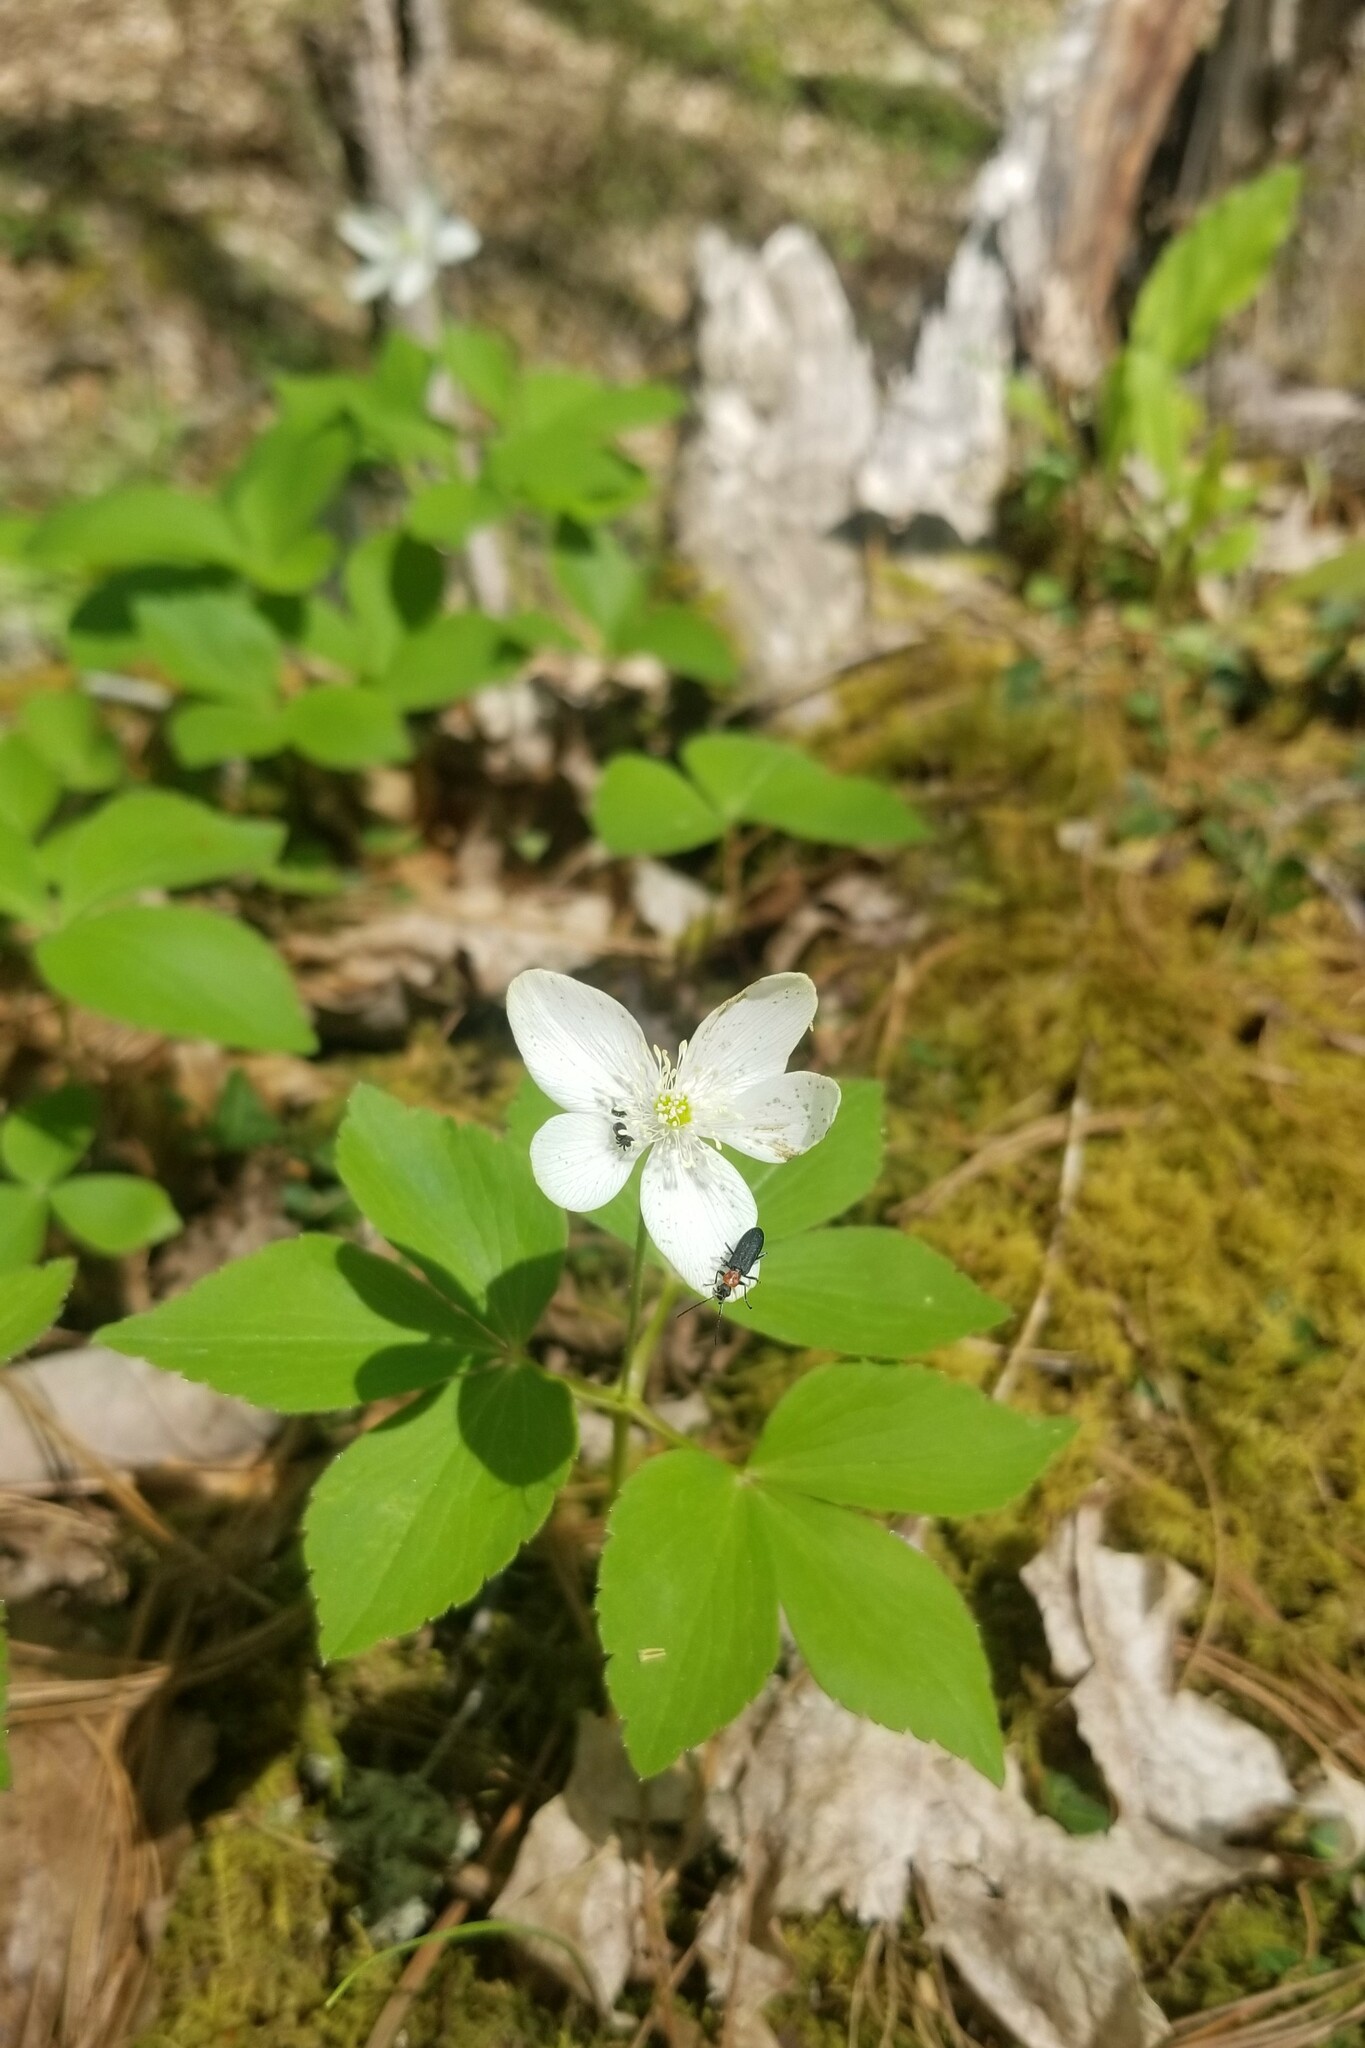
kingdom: Plantae
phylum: Tracheophyta
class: Magnoliopsida
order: Ranunculales
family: Ranunculaceae
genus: Anemone
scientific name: Anemone lancifolia
